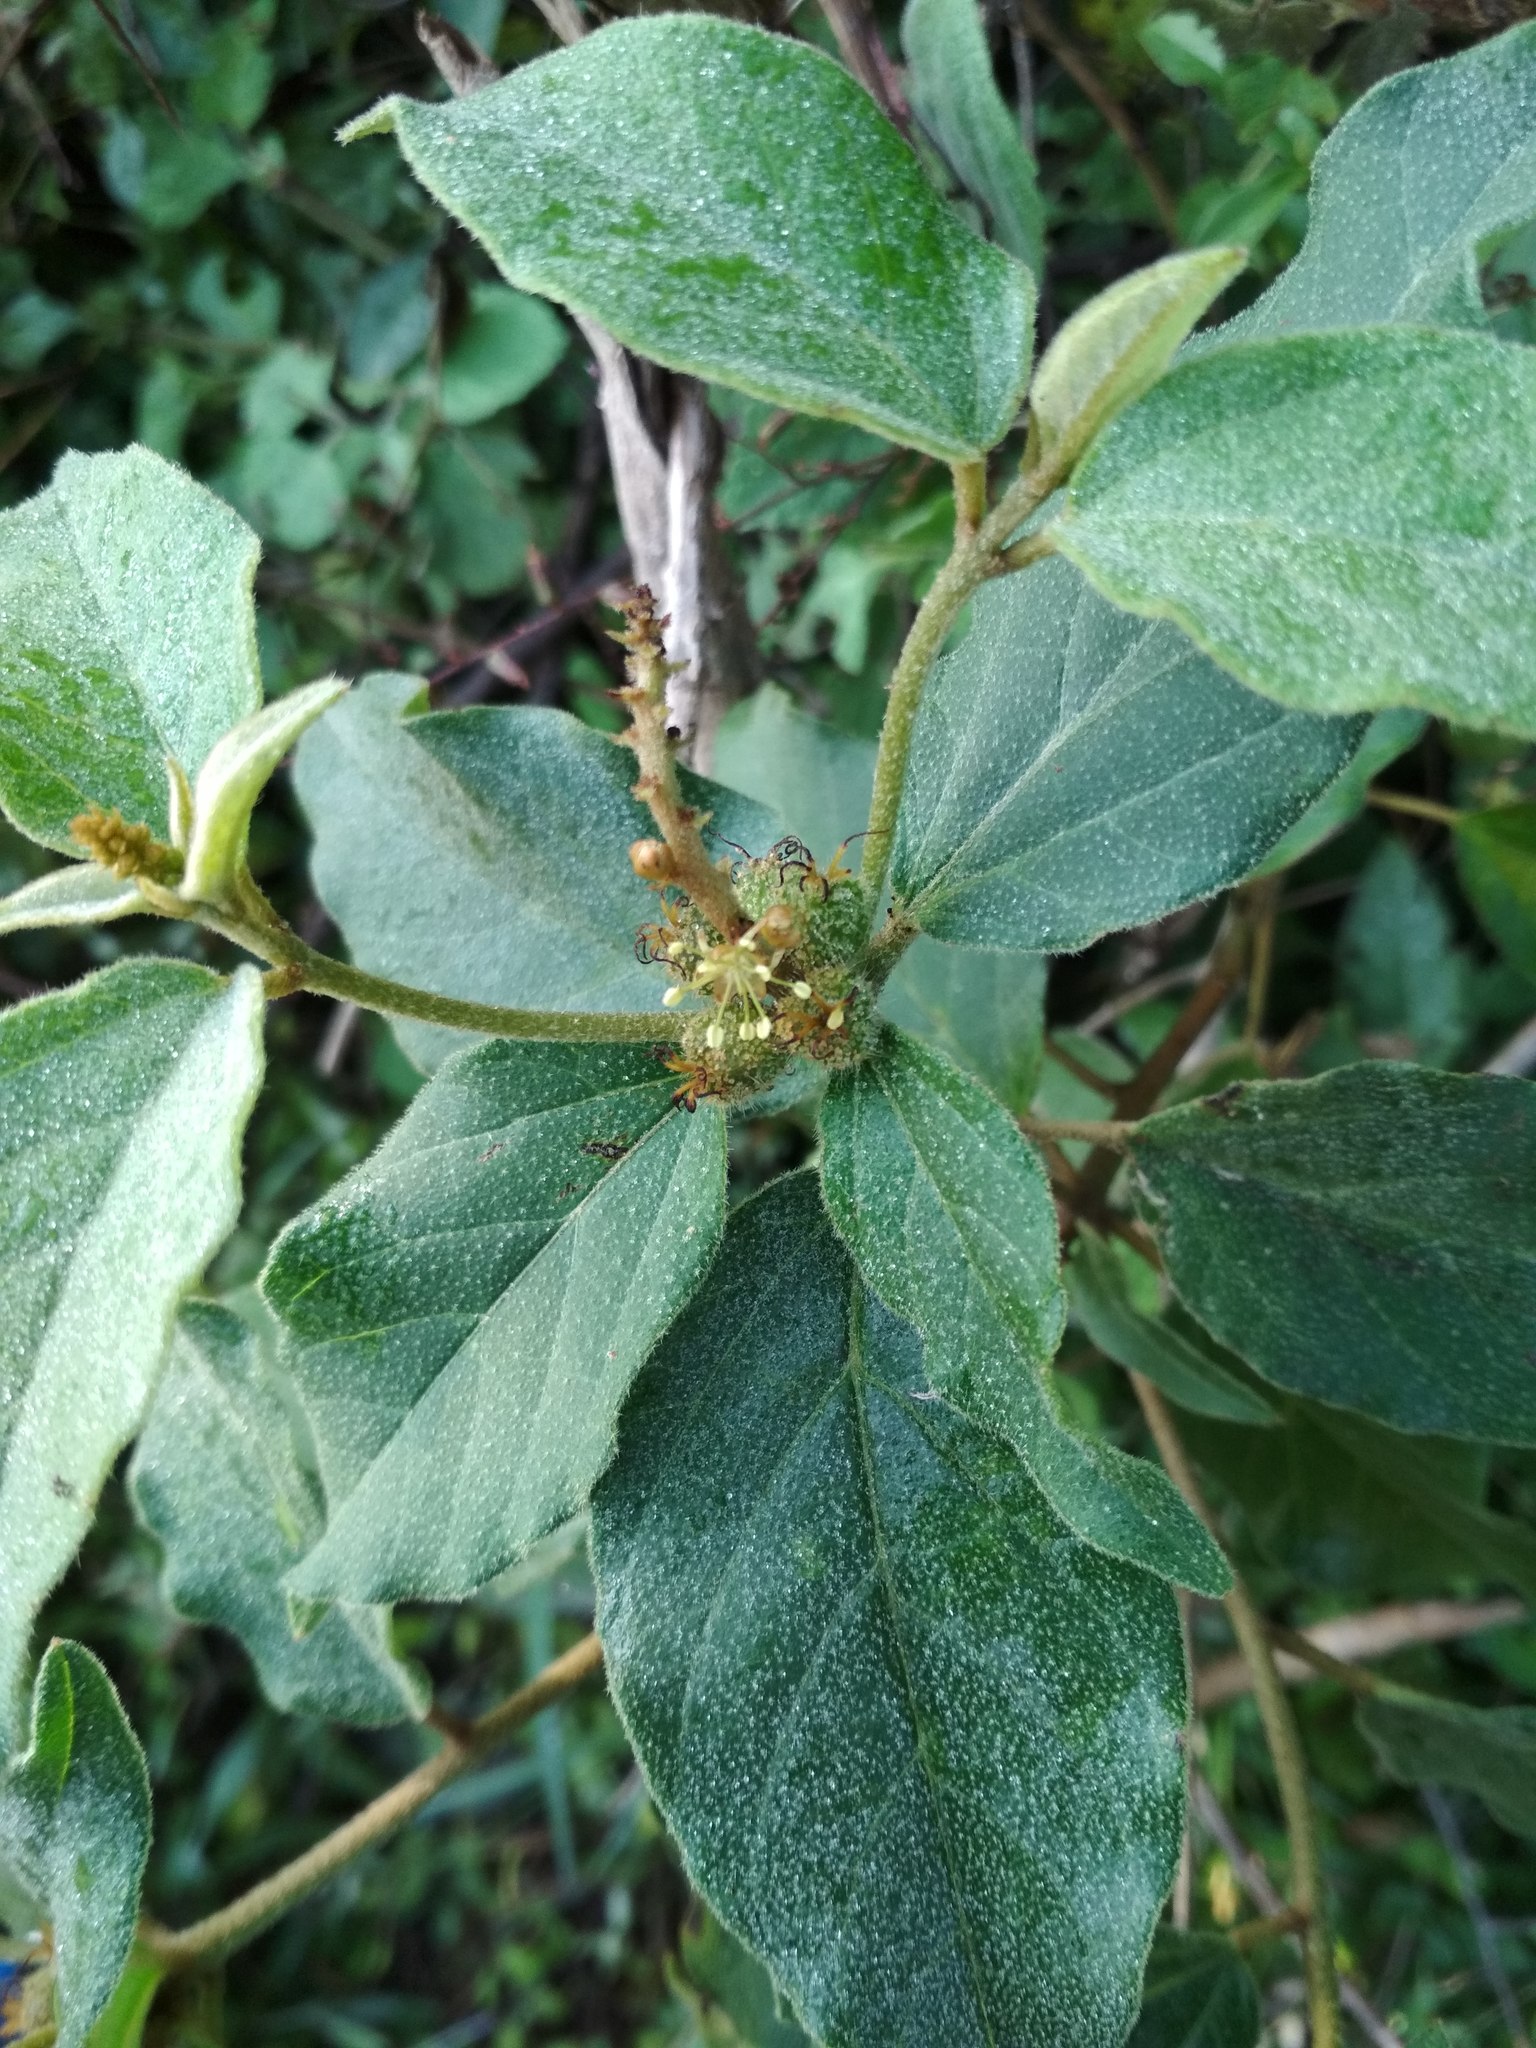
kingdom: Plantae
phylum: Tracheophyta
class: Magnoliopsida
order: Malpighiales
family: Euphorbiaceae
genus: Croton
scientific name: Croton adspersus
